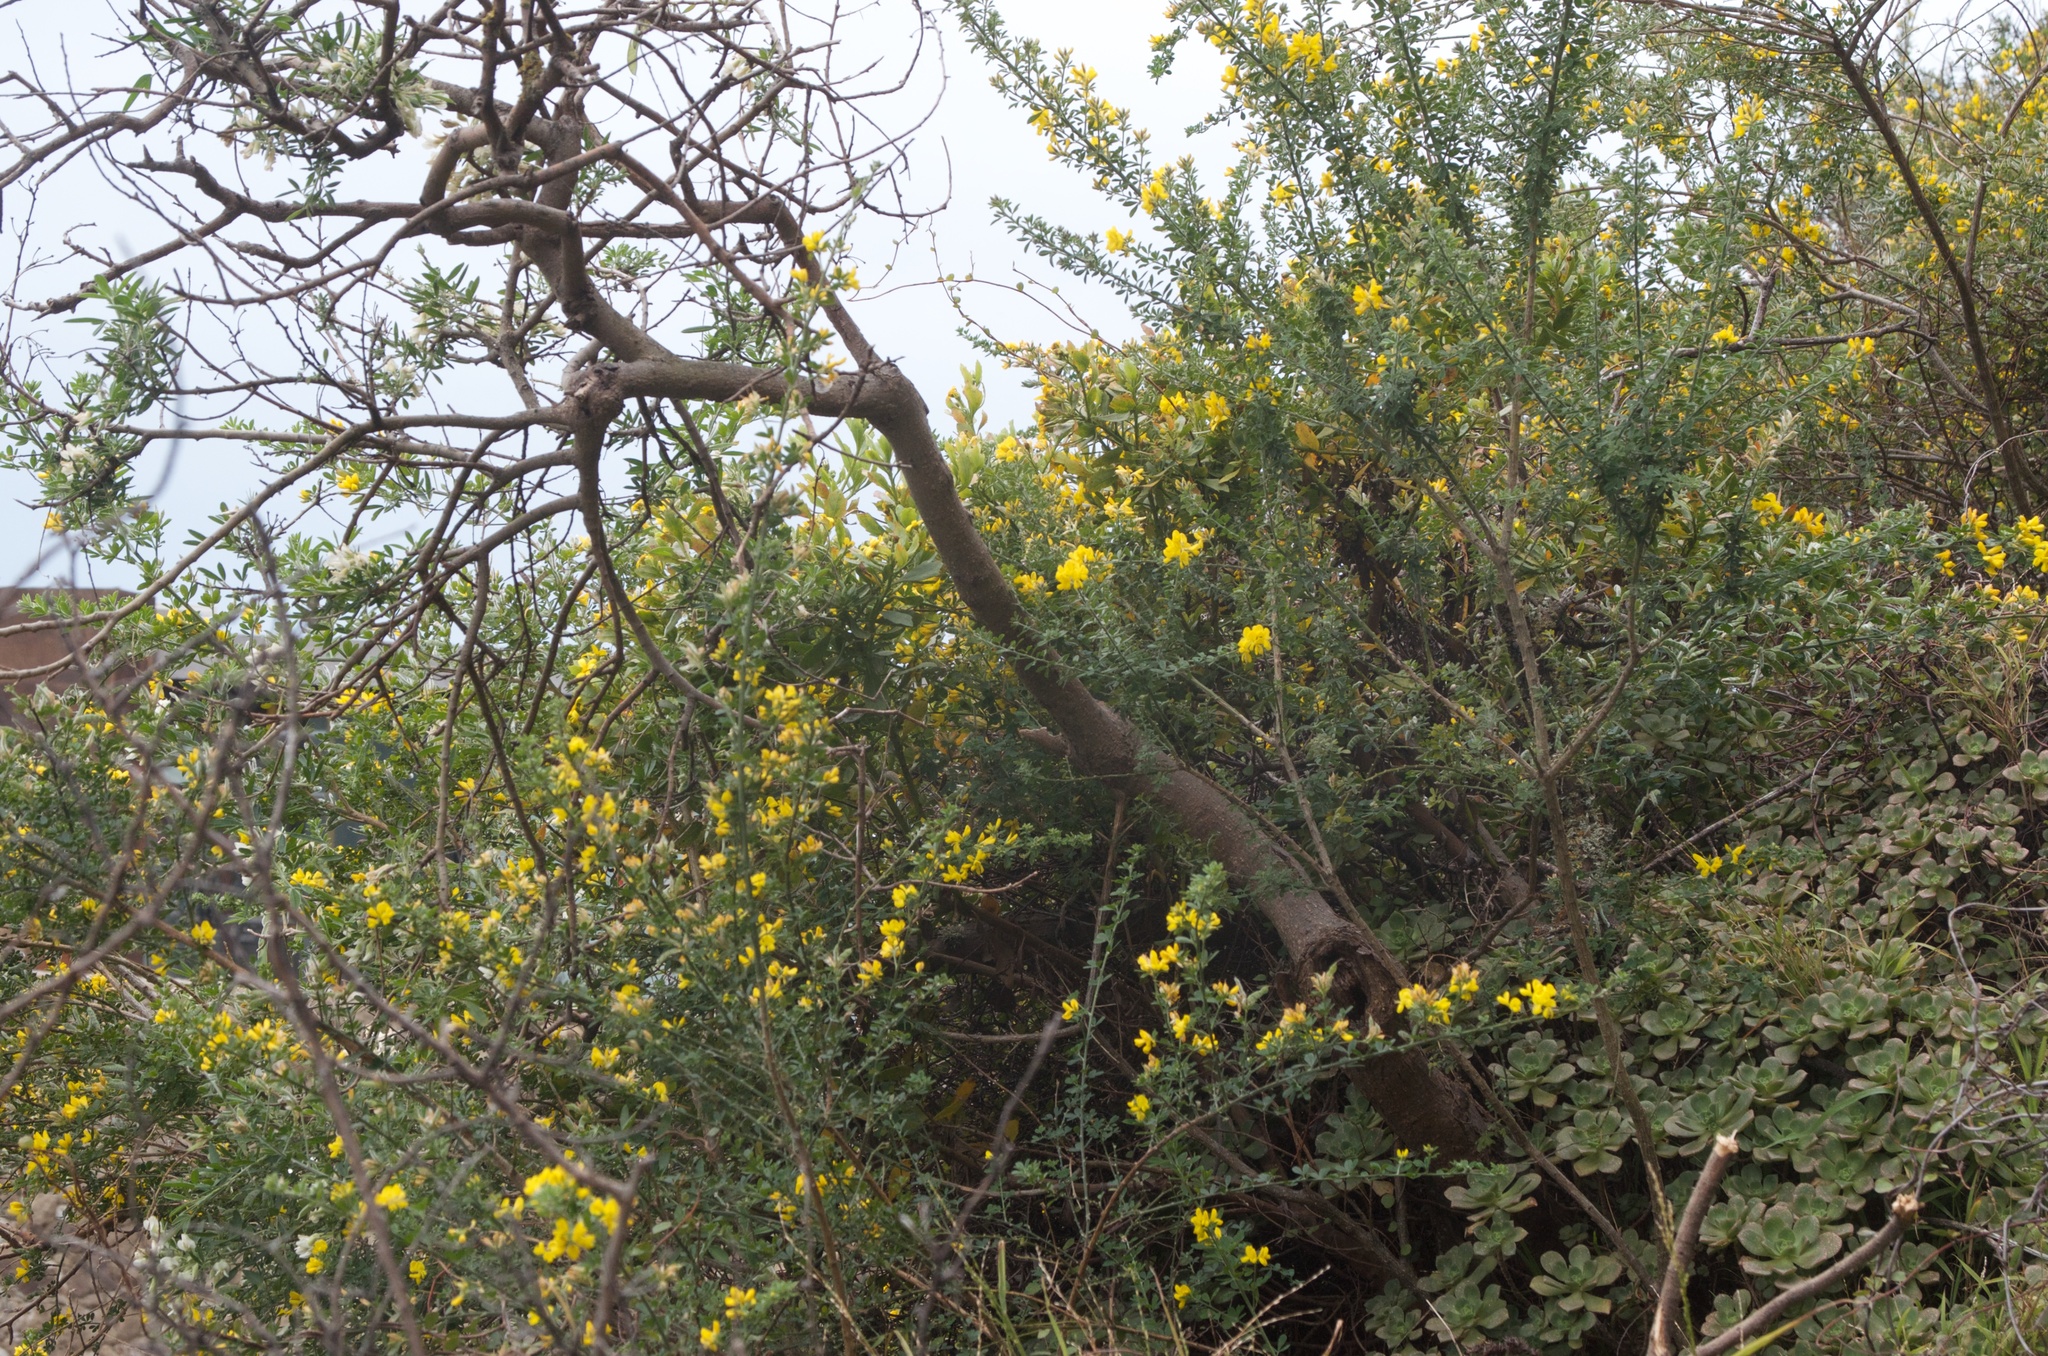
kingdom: Plantae
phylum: Tracheophyta
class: Magnoliopsida
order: Fabales
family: Fabaceae
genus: Genista
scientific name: Genista stenopetala
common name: Leafy broom
